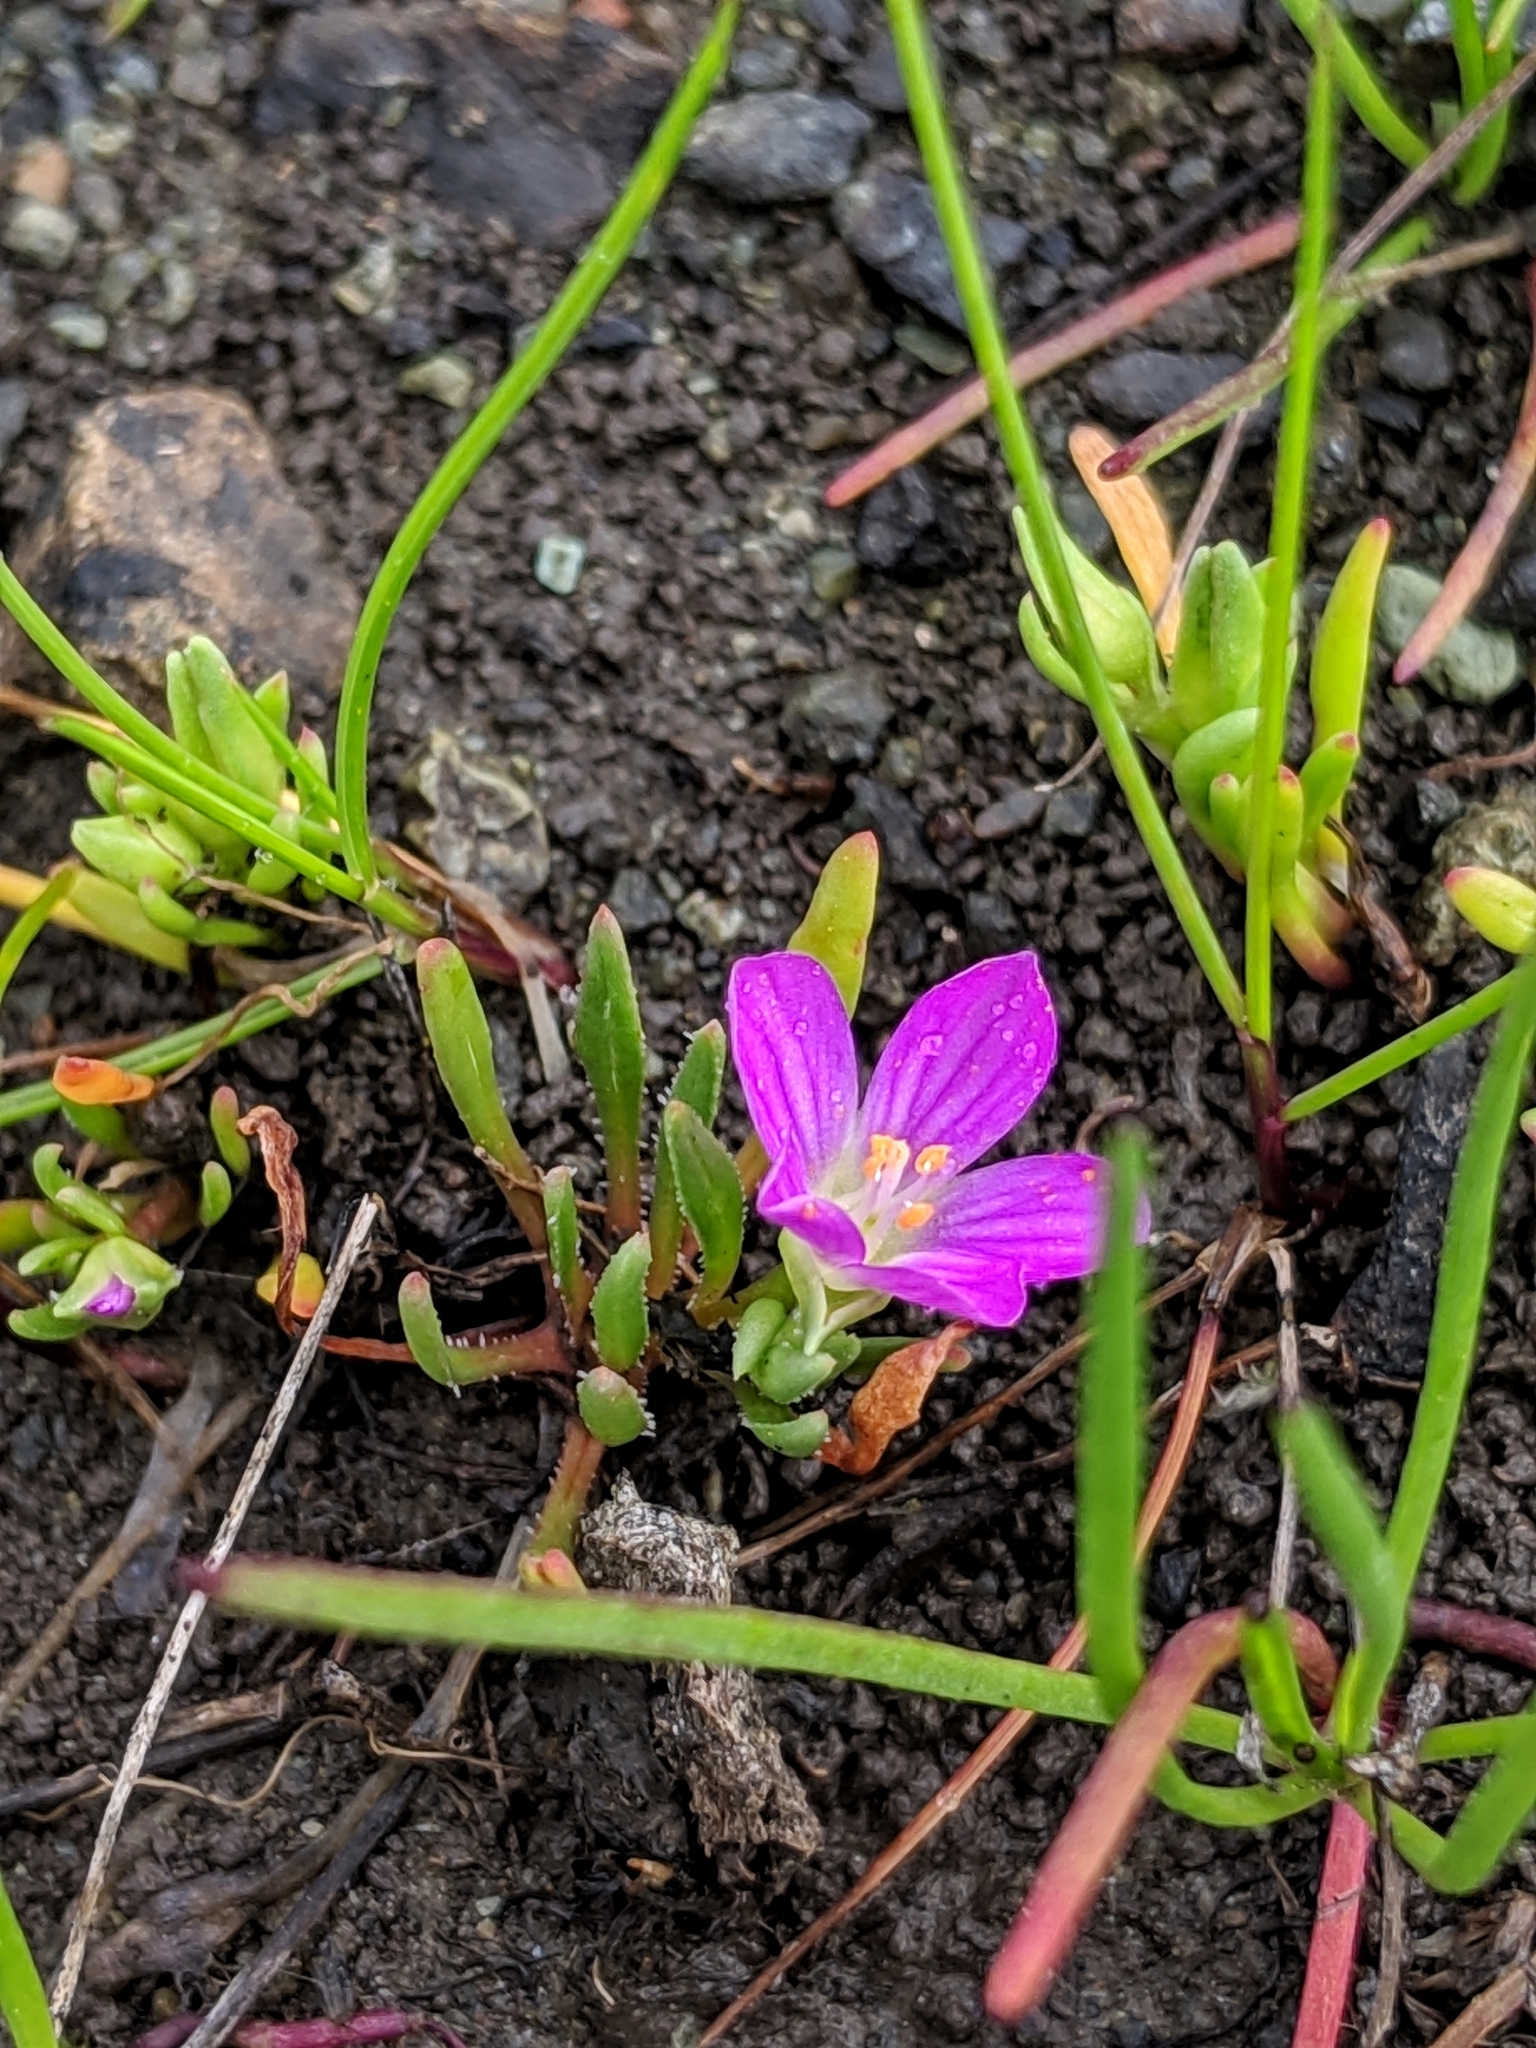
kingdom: Plantae
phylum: Tracheophyta
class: Magnoliopsida
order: Caryophyllales
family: Montiaceae
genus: Calandrinia
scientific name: Calandrinia menziesii
